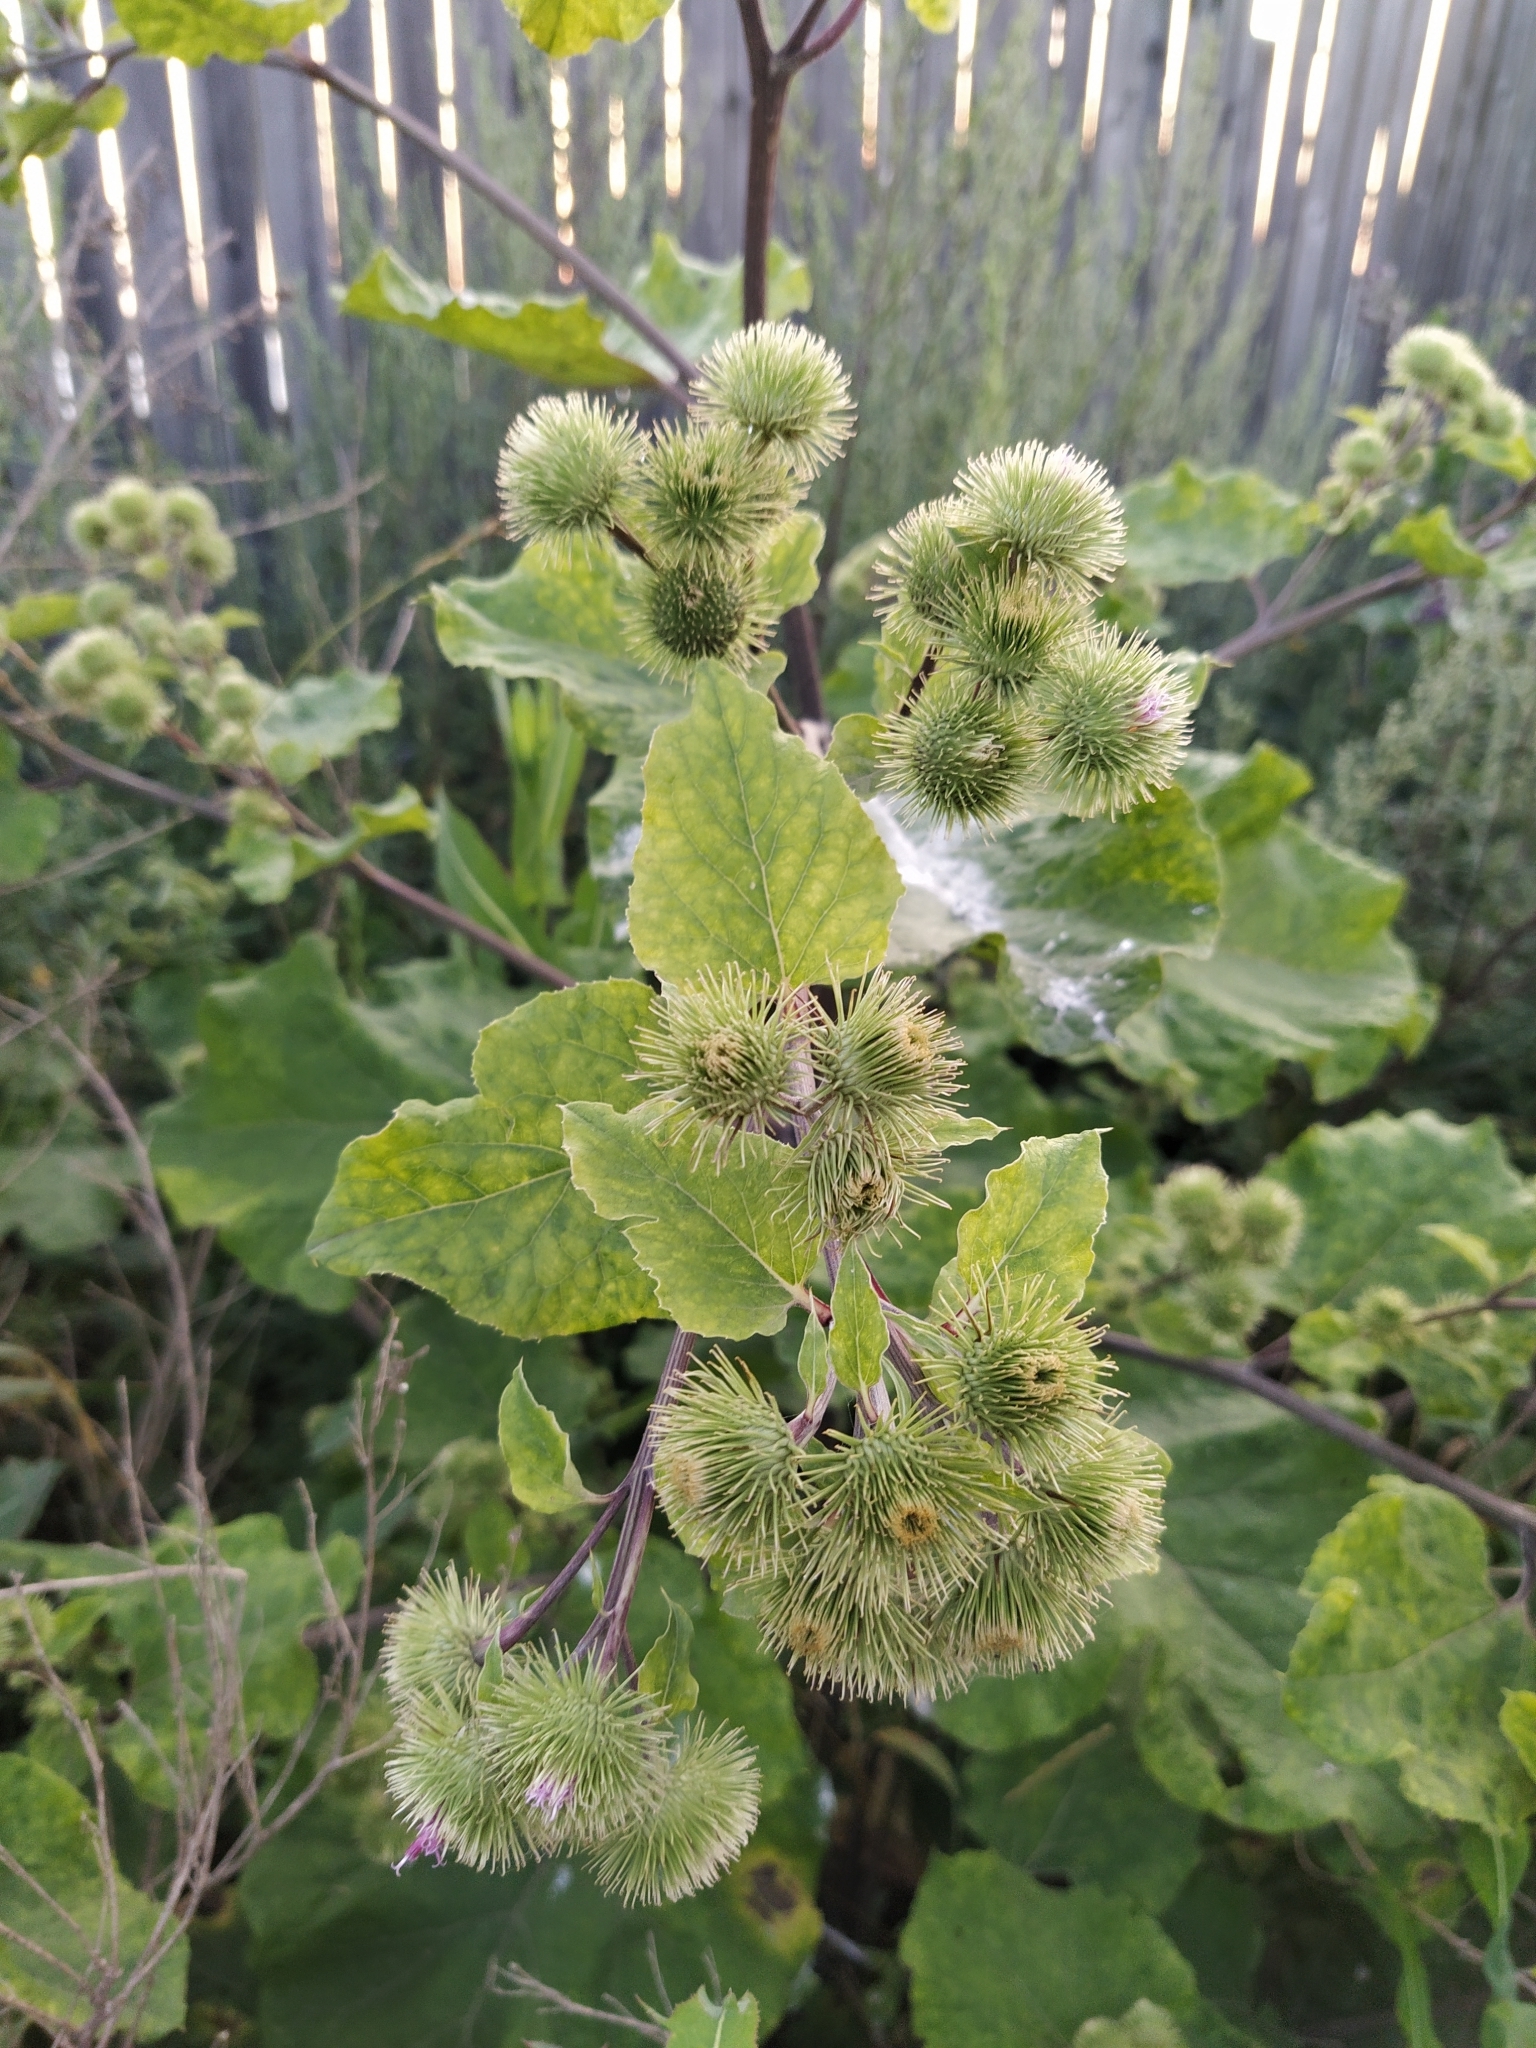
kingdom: Plantae
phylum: Tracheophyta
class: Magnoliopsida
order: Asterales
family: Asteraceae
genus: Arctium
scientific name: Arctium lappa
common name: Greater burdock
